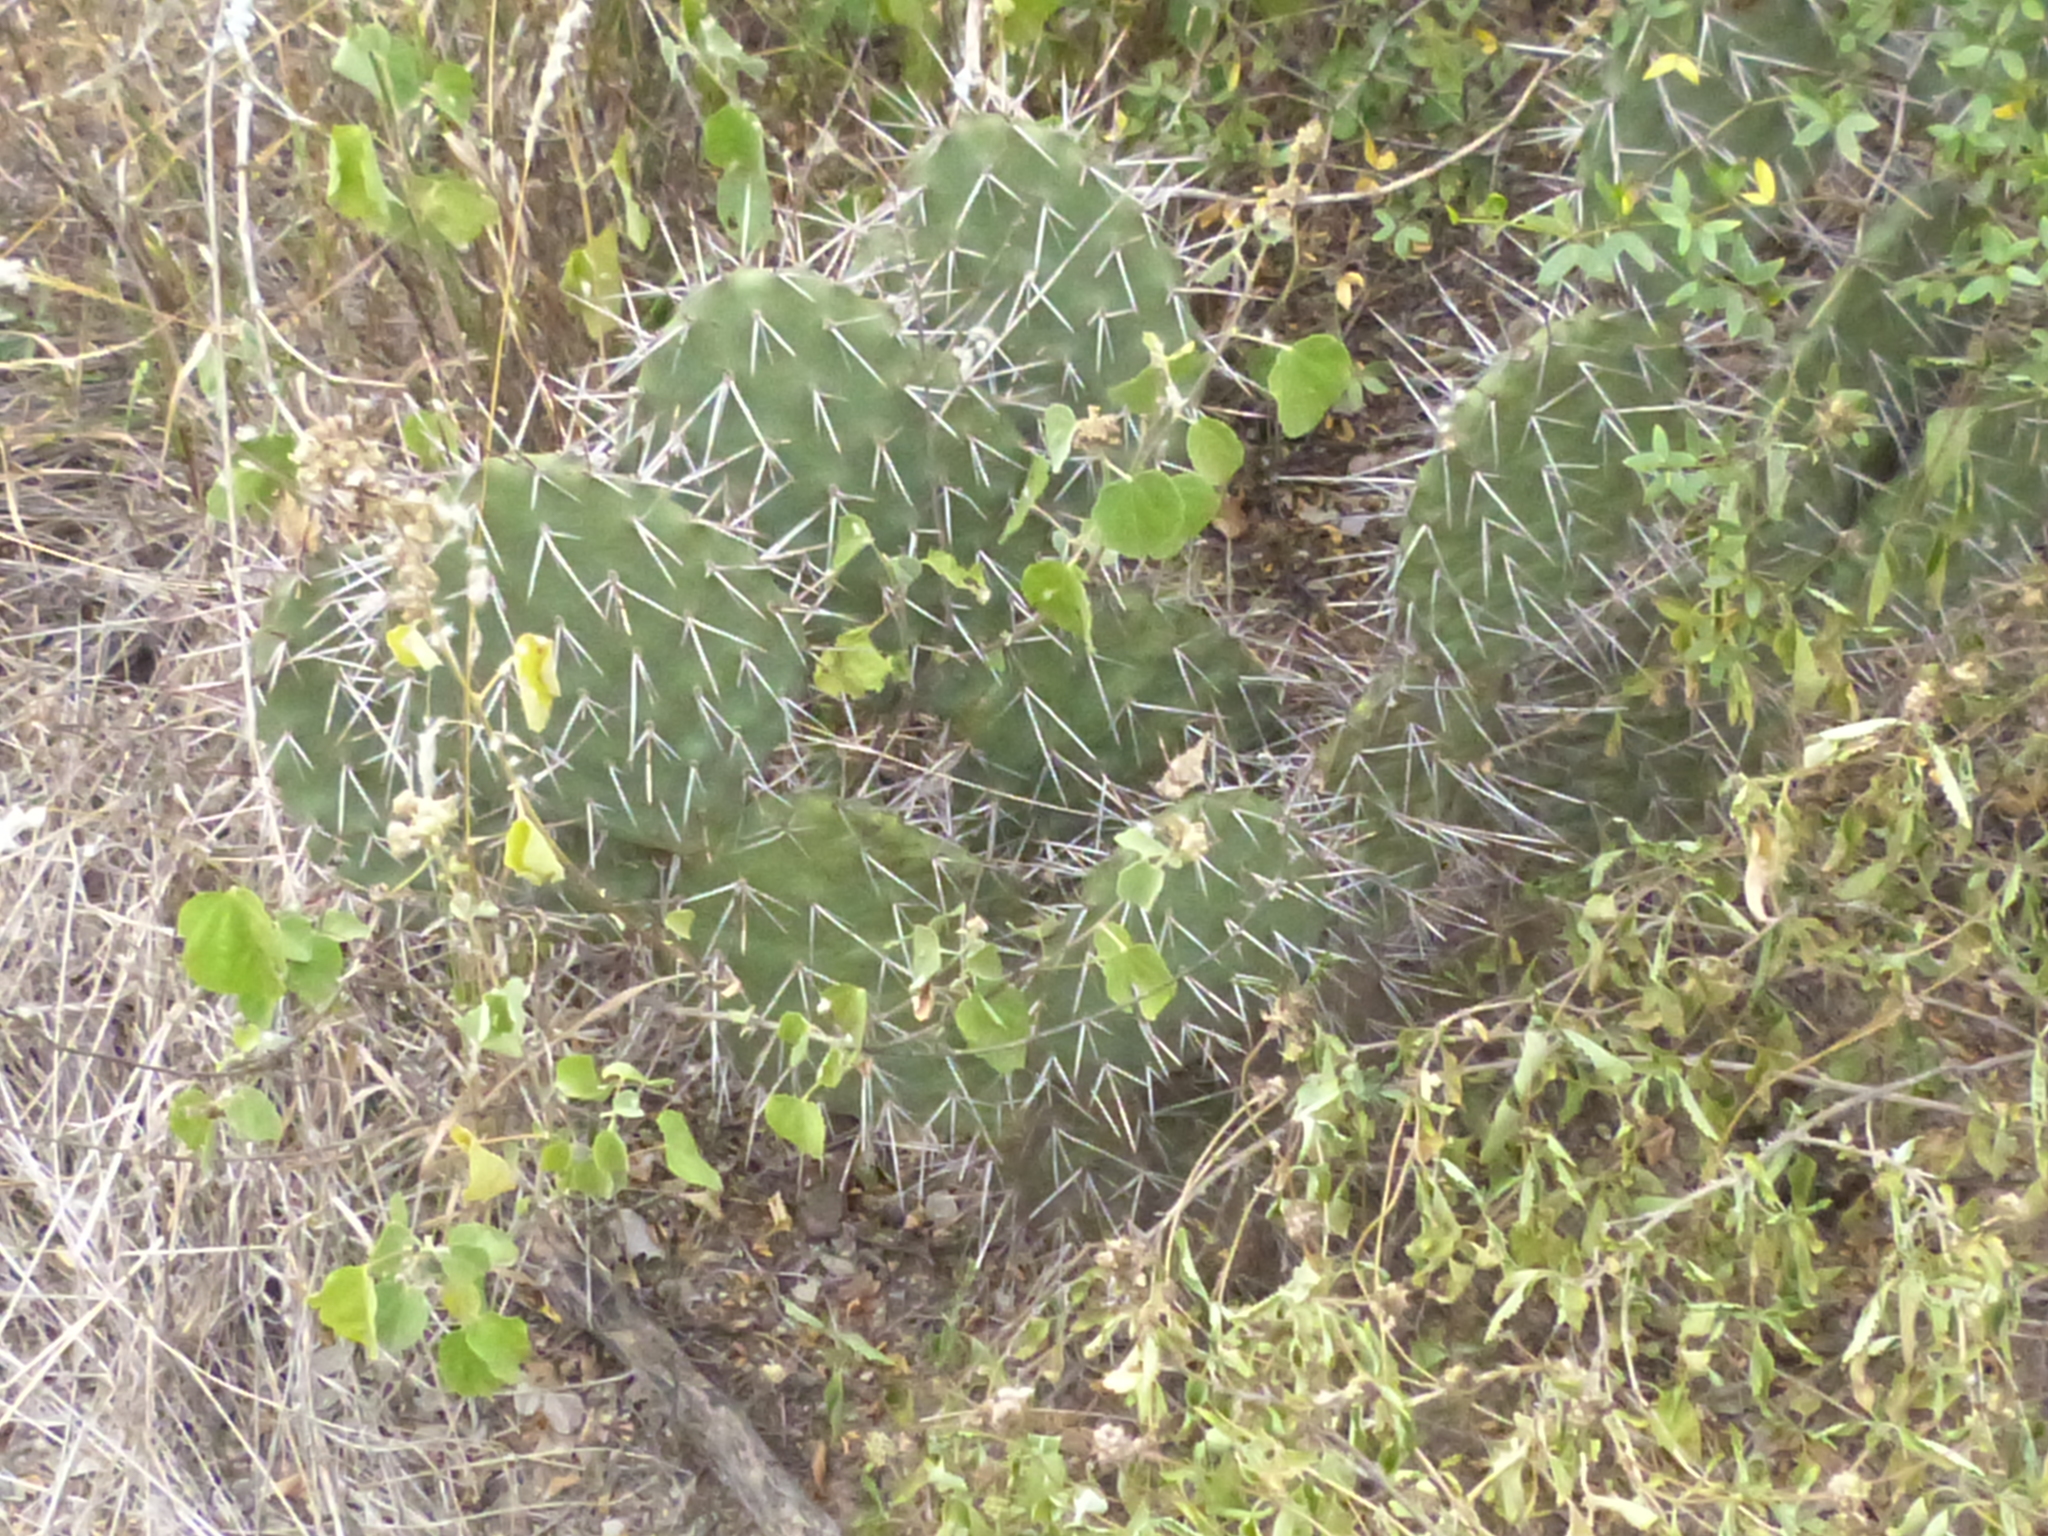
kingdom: Plantae
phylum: Tracheophyta
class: Magnoliopsida
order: Caryophyllales
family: Cactaceae
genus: Opuntia
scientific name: Opuntia sulphurea
